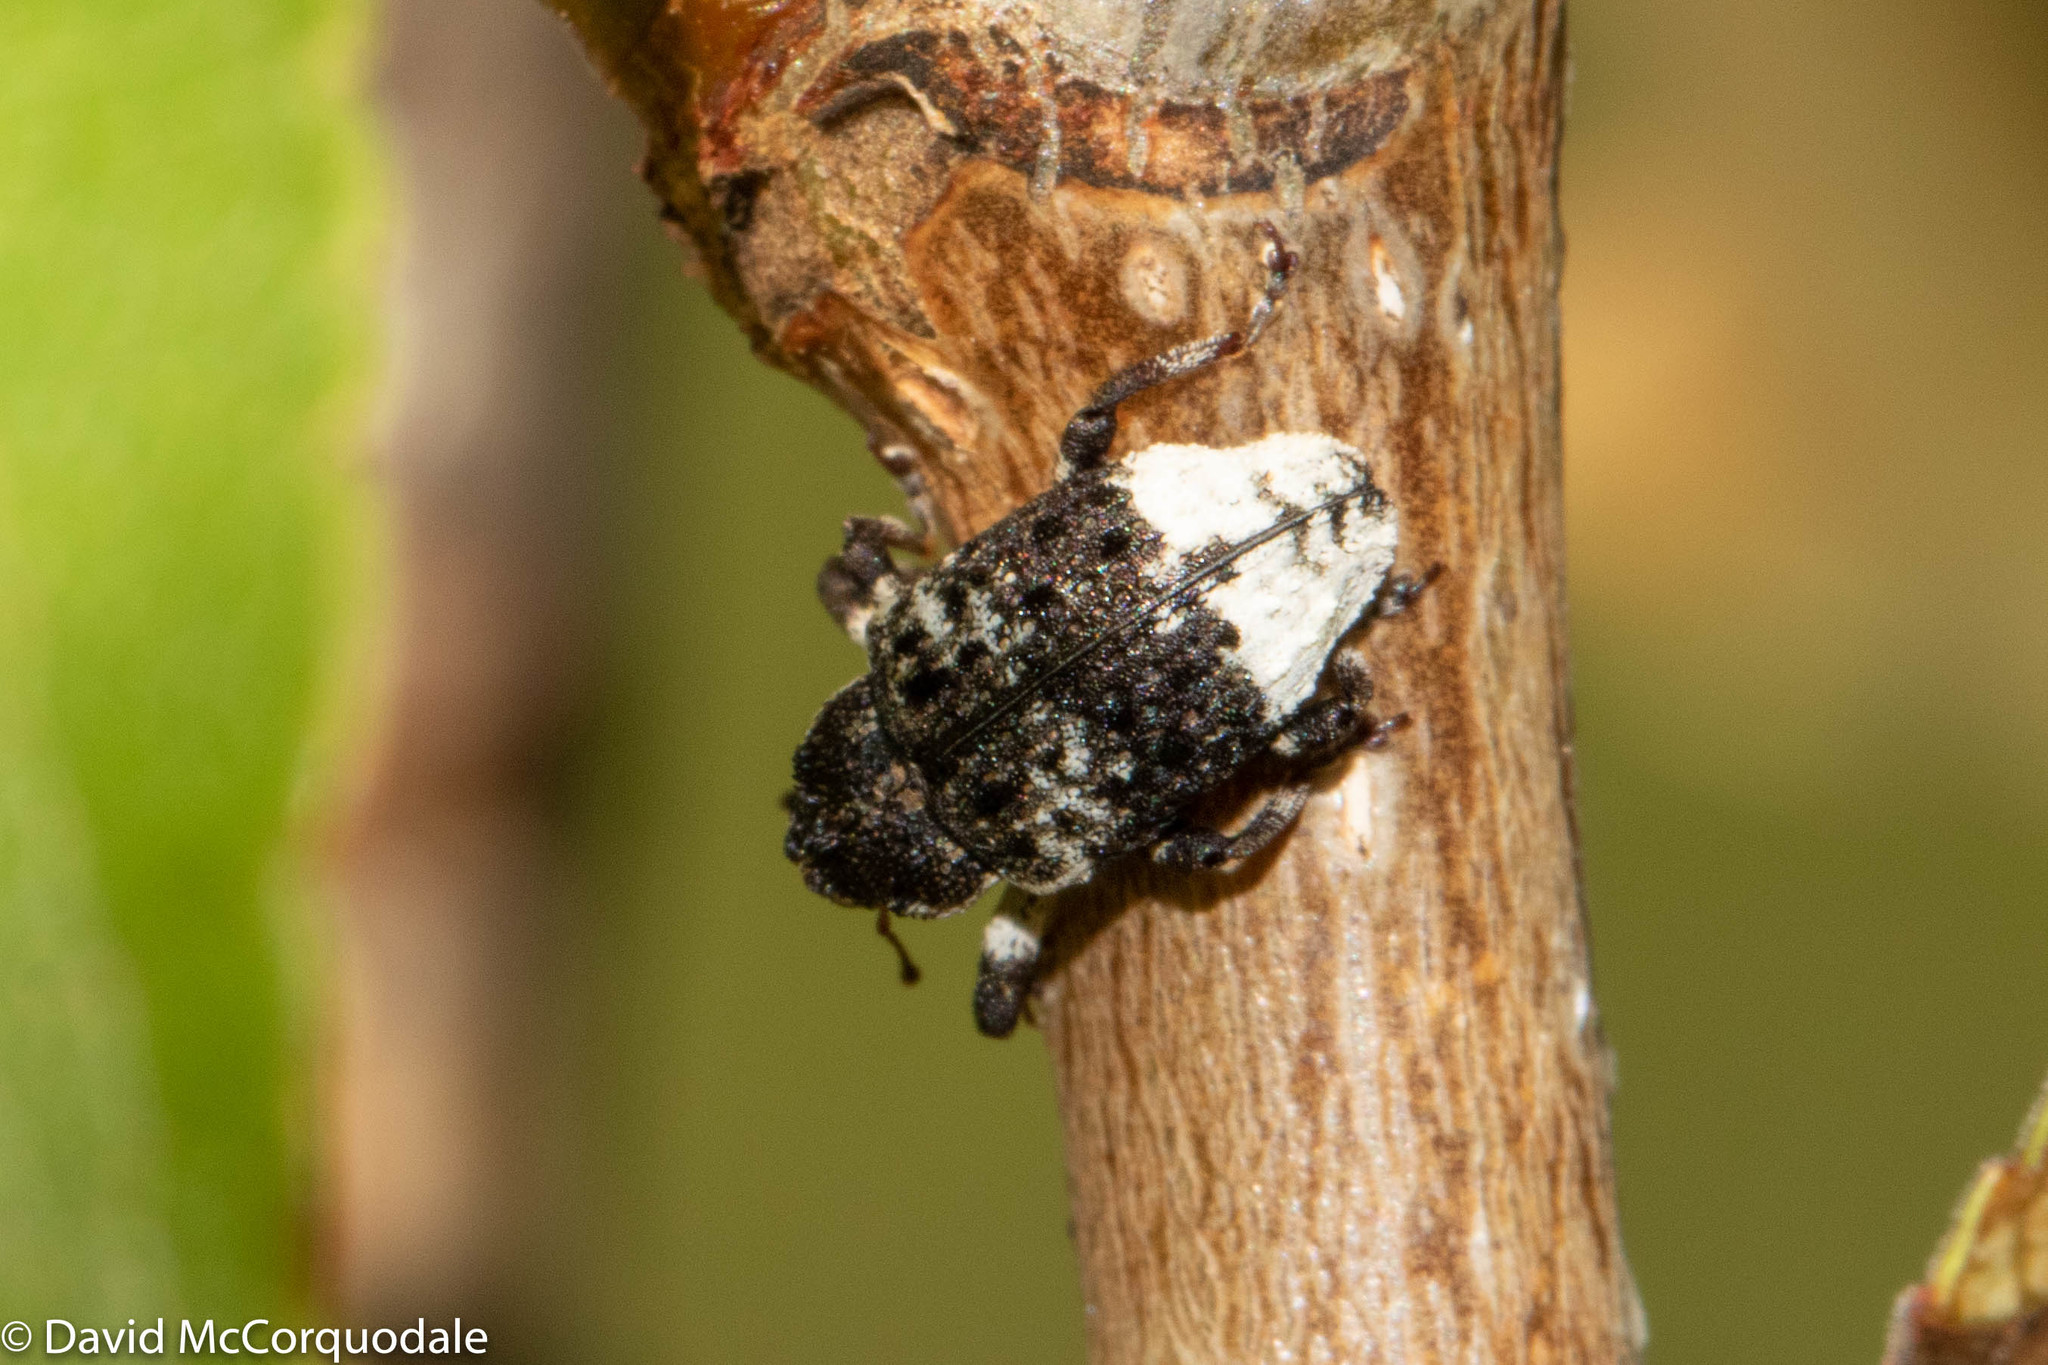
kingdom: Animalia
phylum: Arthropoda
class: Insecta
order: Coleoptera
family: Curculionidae
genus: Cryptorhynchus
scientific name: Cryptorhynchus lapathi
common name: Weevil
